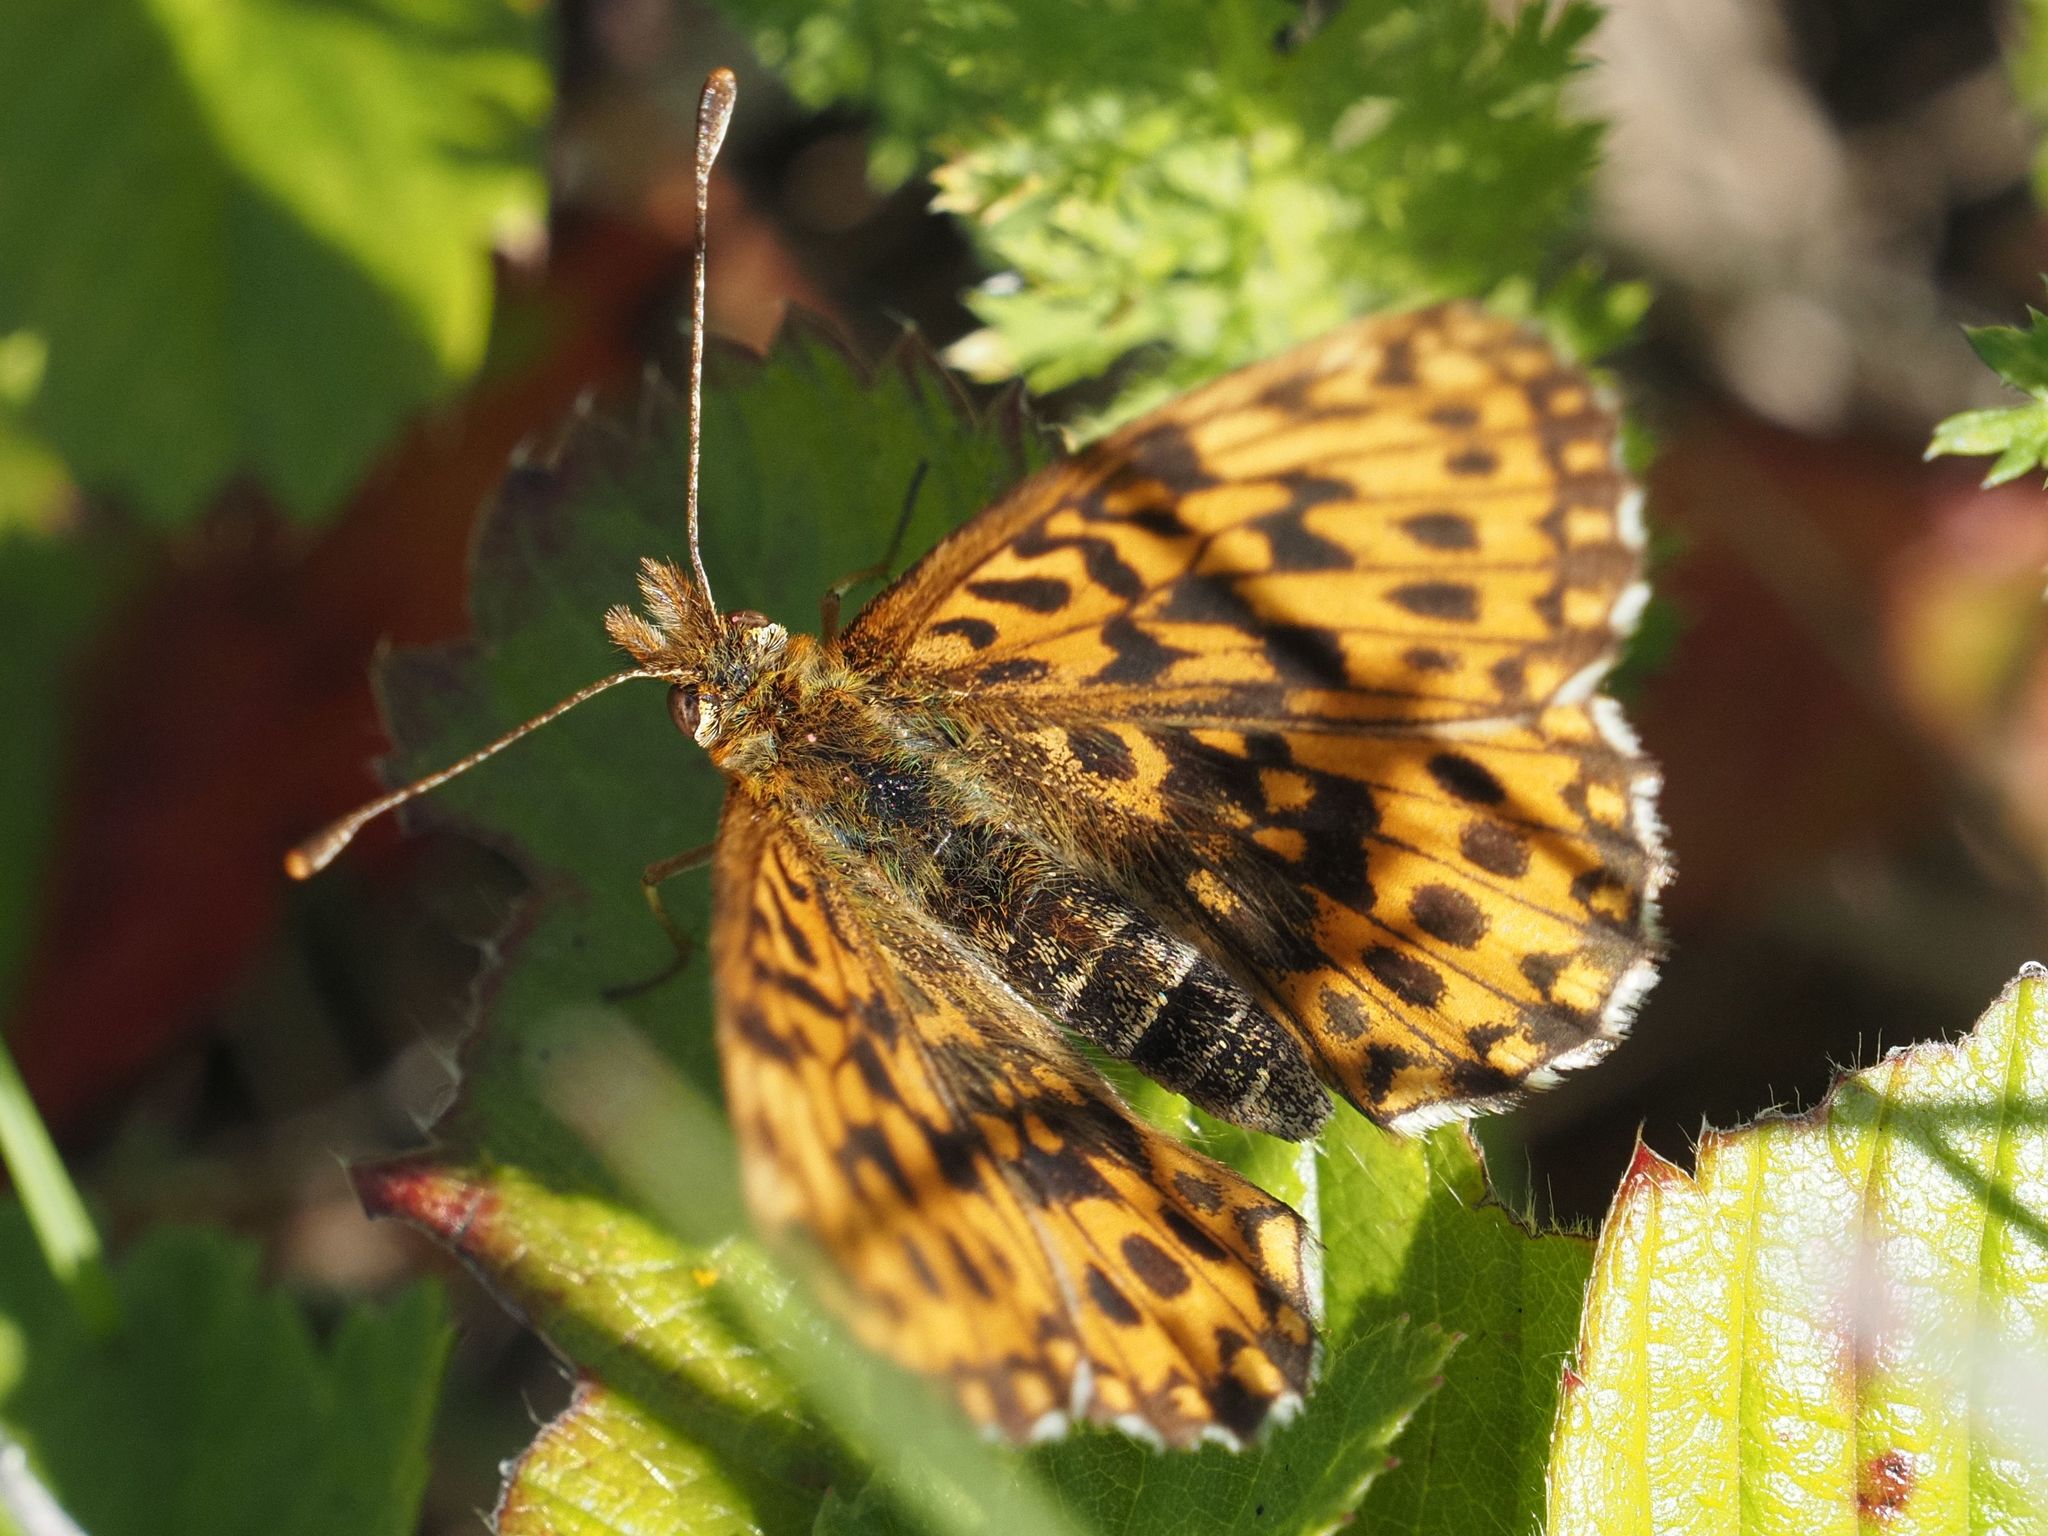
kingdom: Animalia
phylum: Arthropoda
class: Insecta
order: Lepidoptera
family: Nymphalidae
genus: Boloria
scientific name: Boloria dia
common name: Weaver's fritillary
